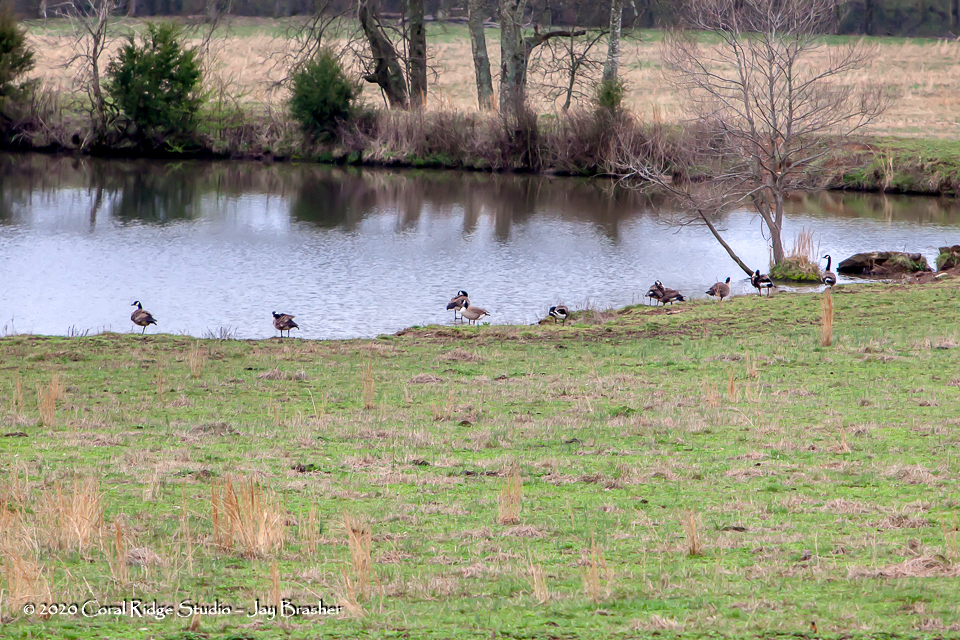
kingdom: Animalia
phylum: Chordata
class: Aves
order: Anseriformes
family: Anatidae
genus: Branta
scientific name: Branta canadensis
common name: Canada goose
